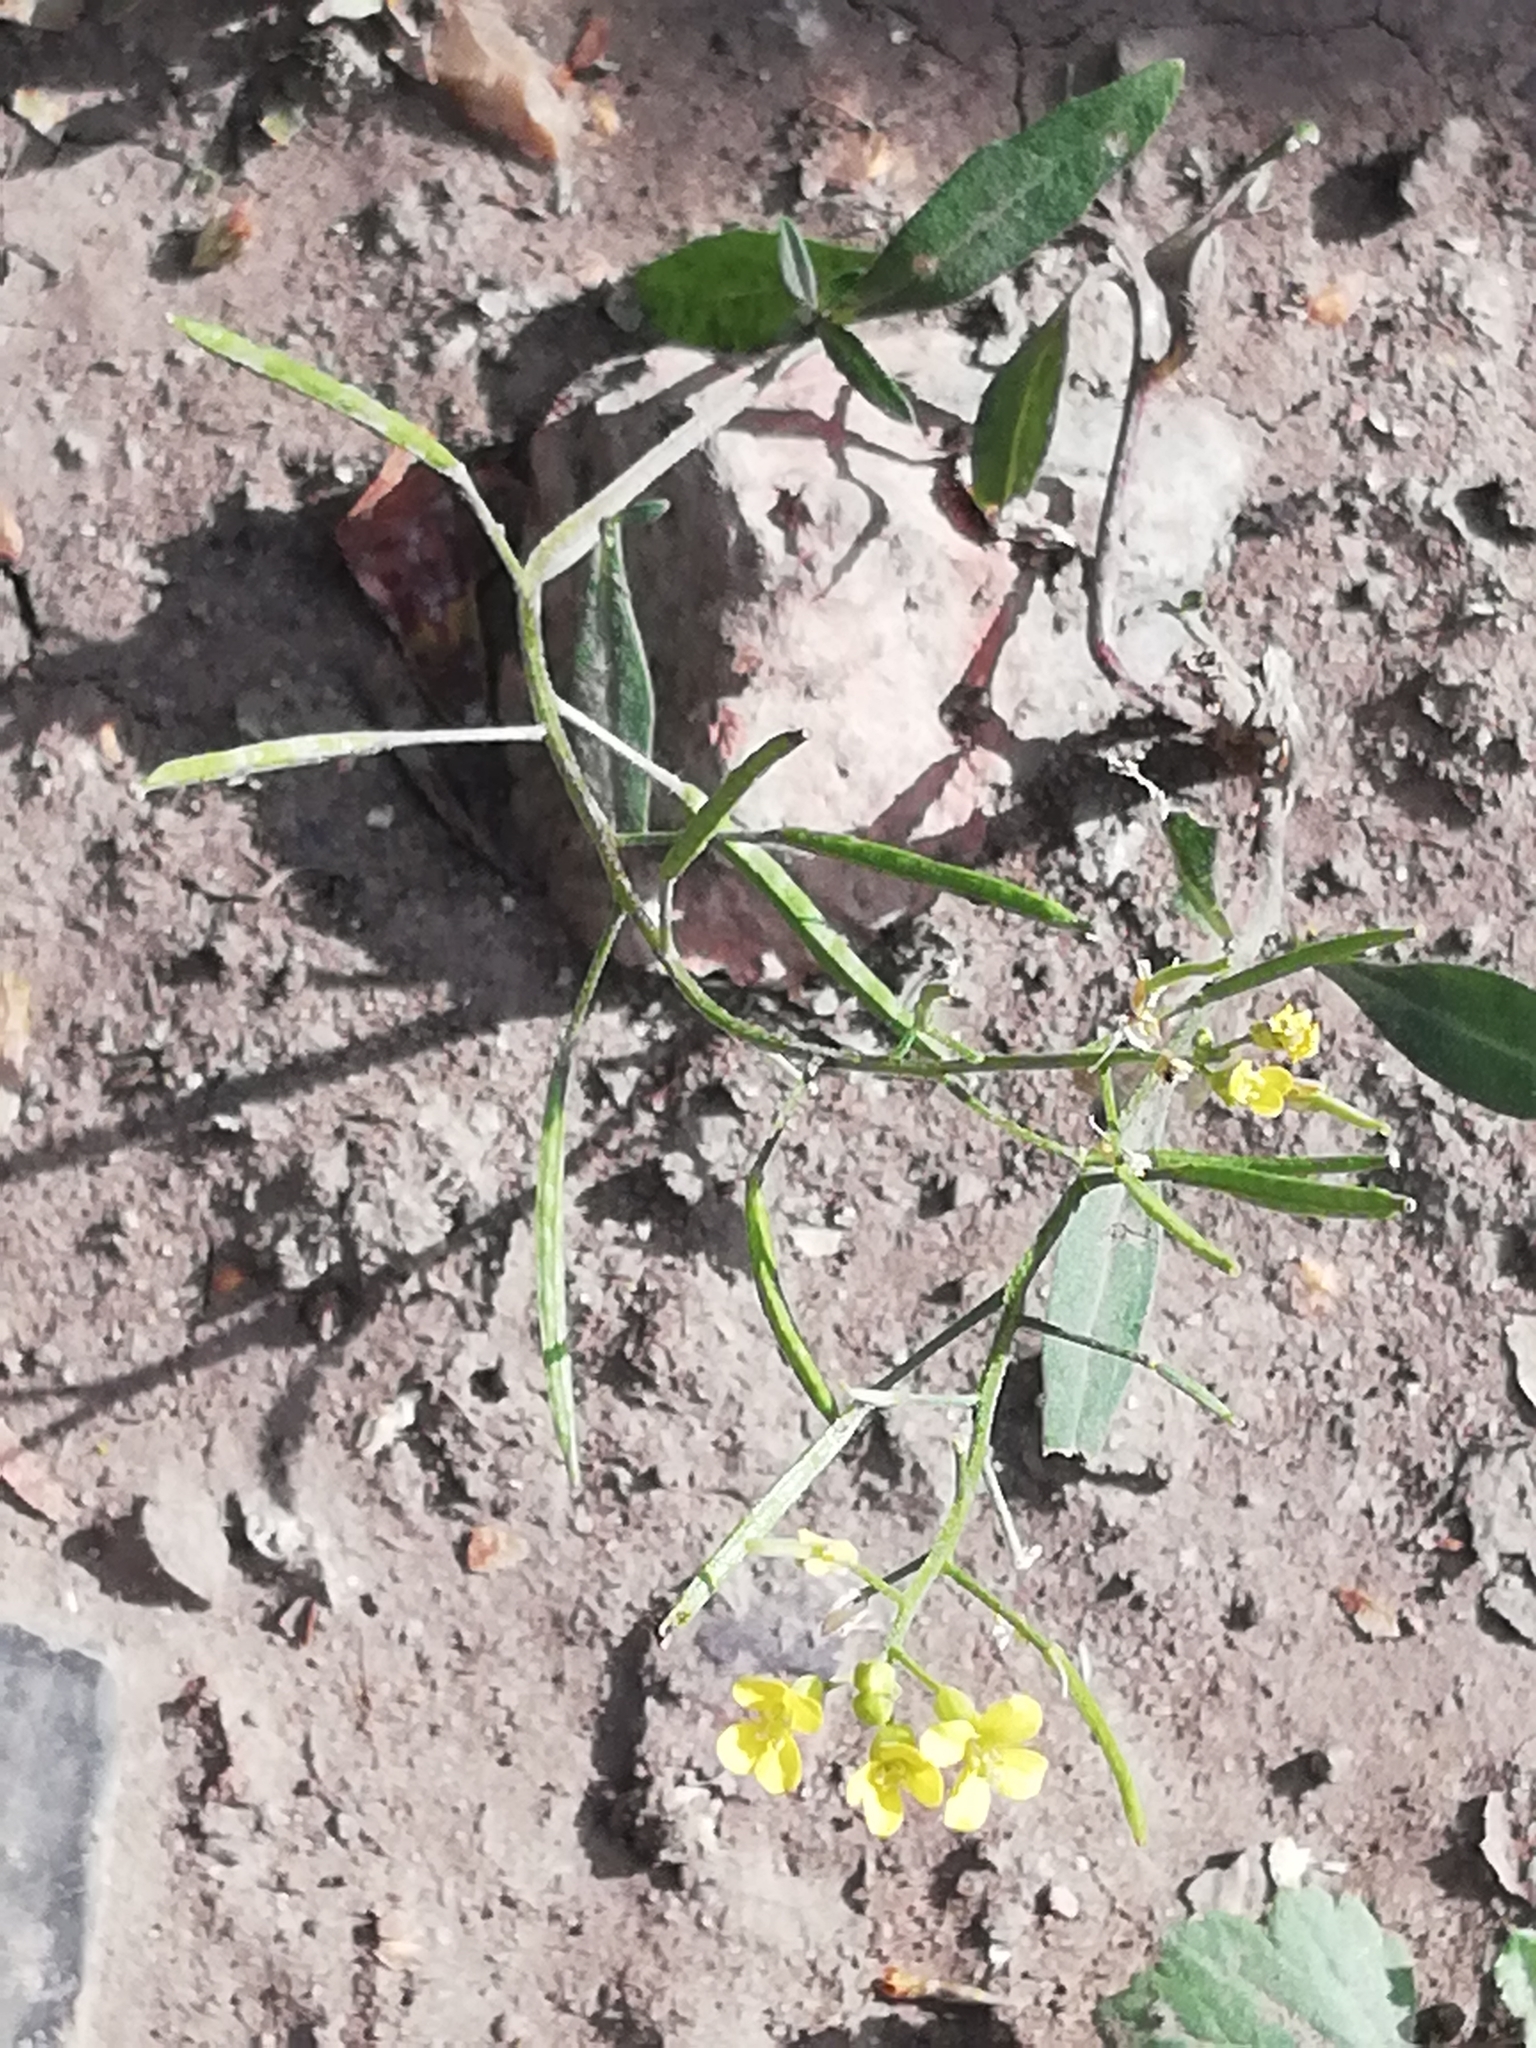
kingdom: Plantae
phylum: Tracheophyta
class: Magnoliopsida
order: Brassicales
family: Brassicaceae
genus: Erysimum
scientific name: Erysimum cheiranthoides
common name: Treacle mustard
